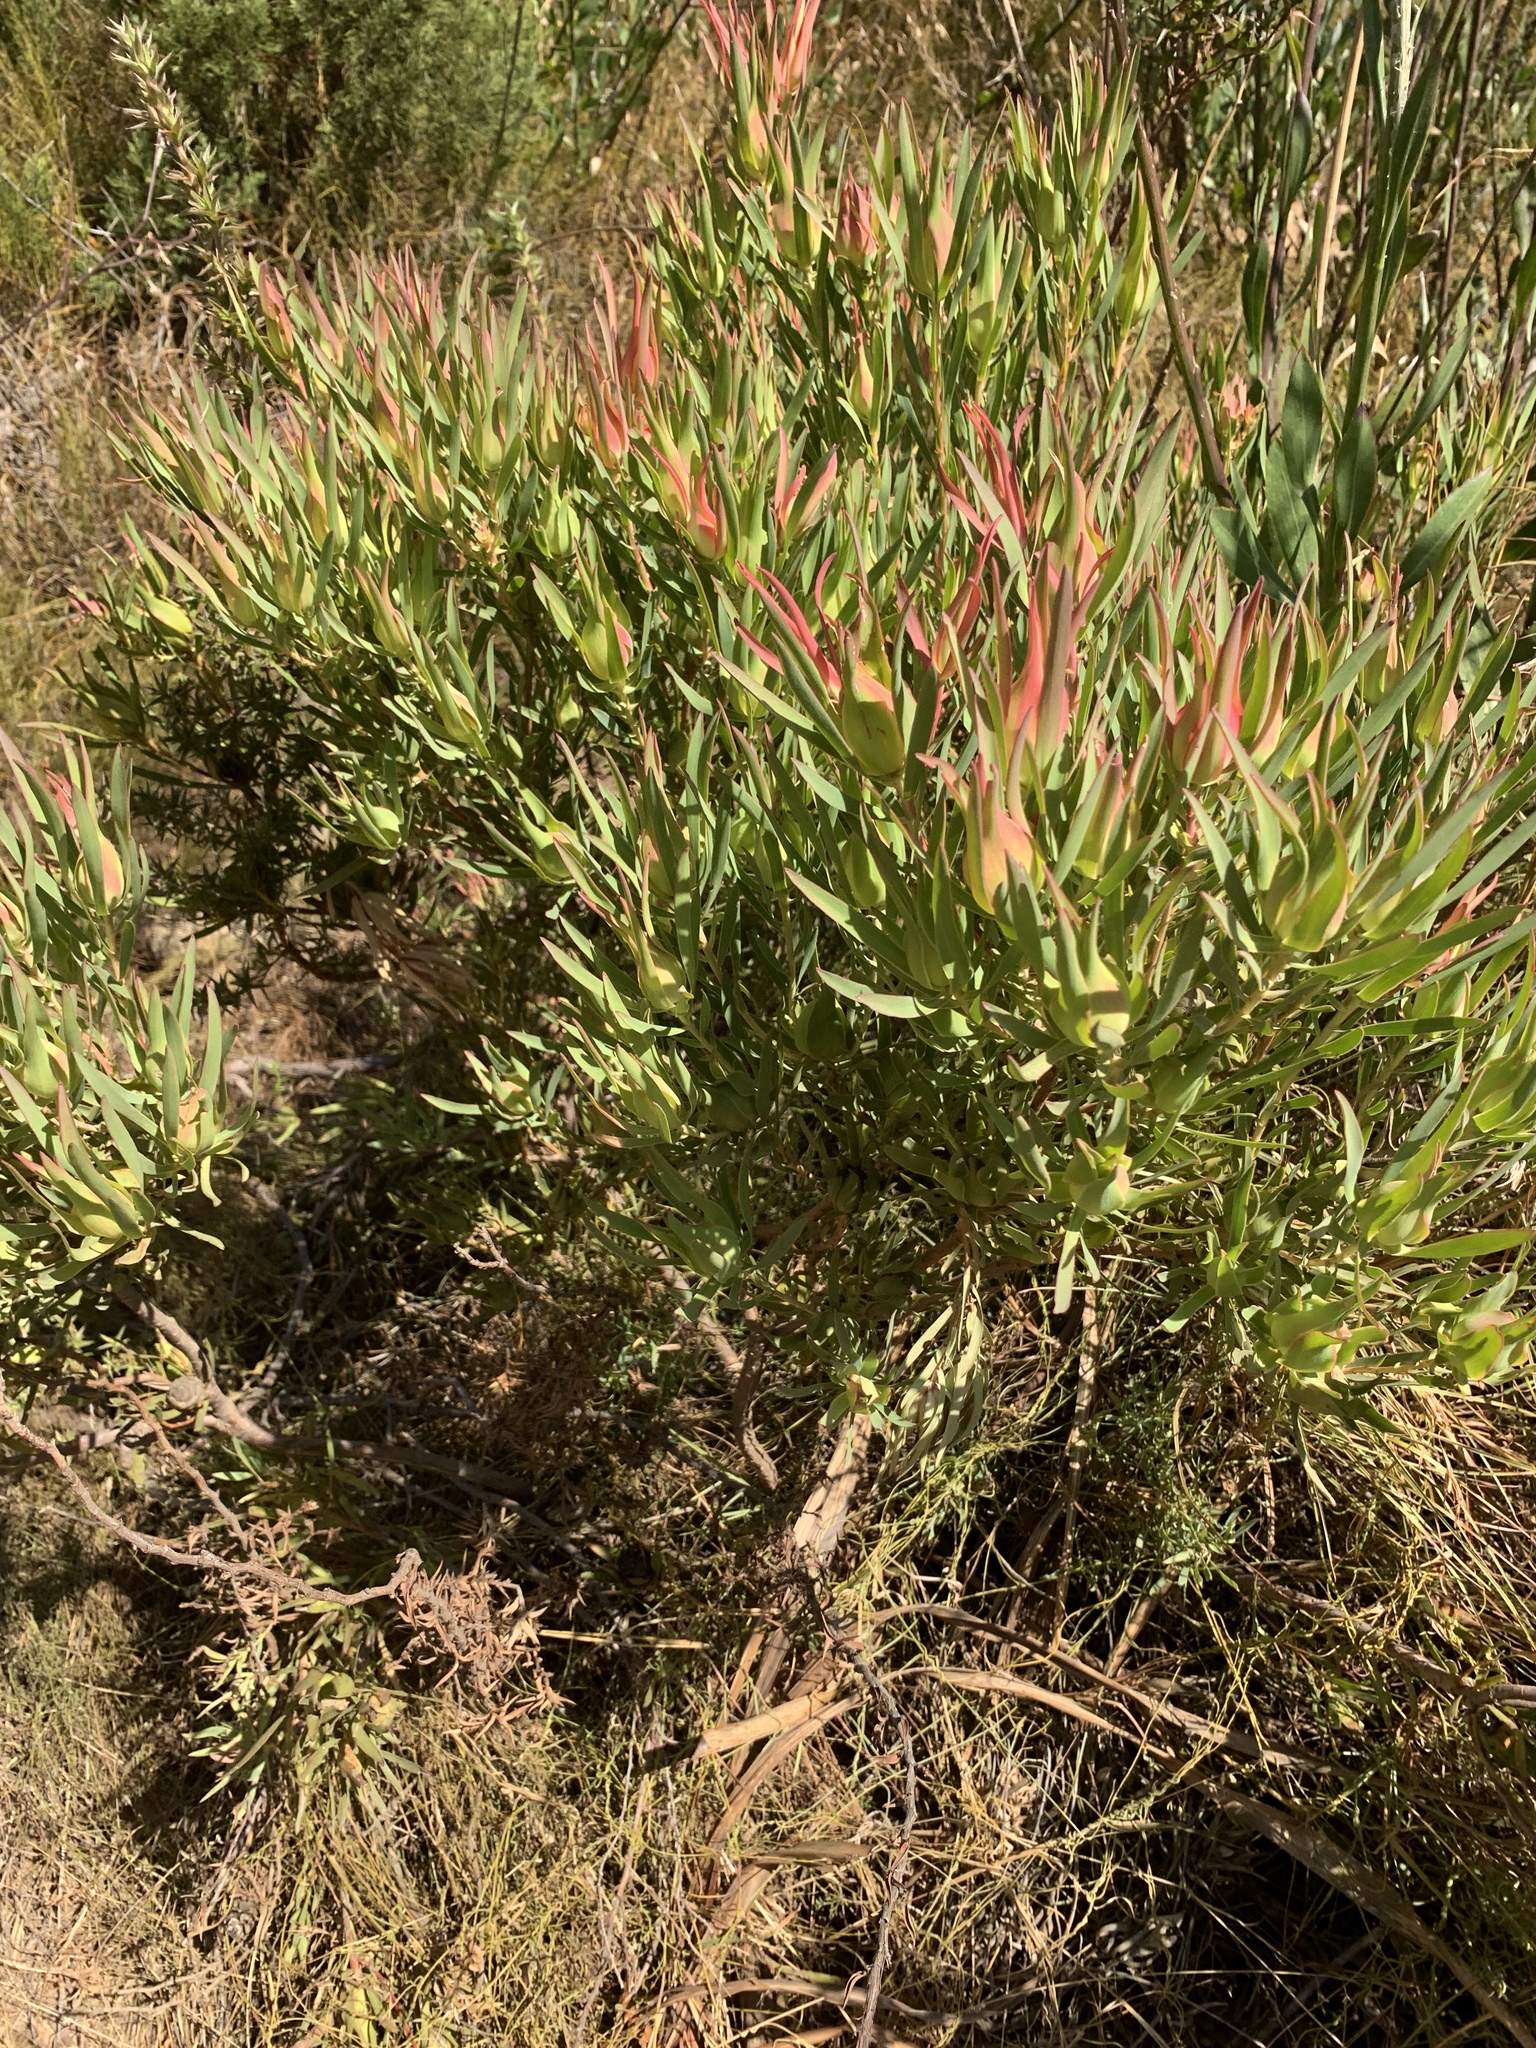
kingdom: Plantae
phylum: Tracheophyta
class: Magnoliopsida
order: Proteales
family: Proteaceae
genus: Leucadendron
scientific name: Leucadendron salignum
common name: Common sunshine conebush
